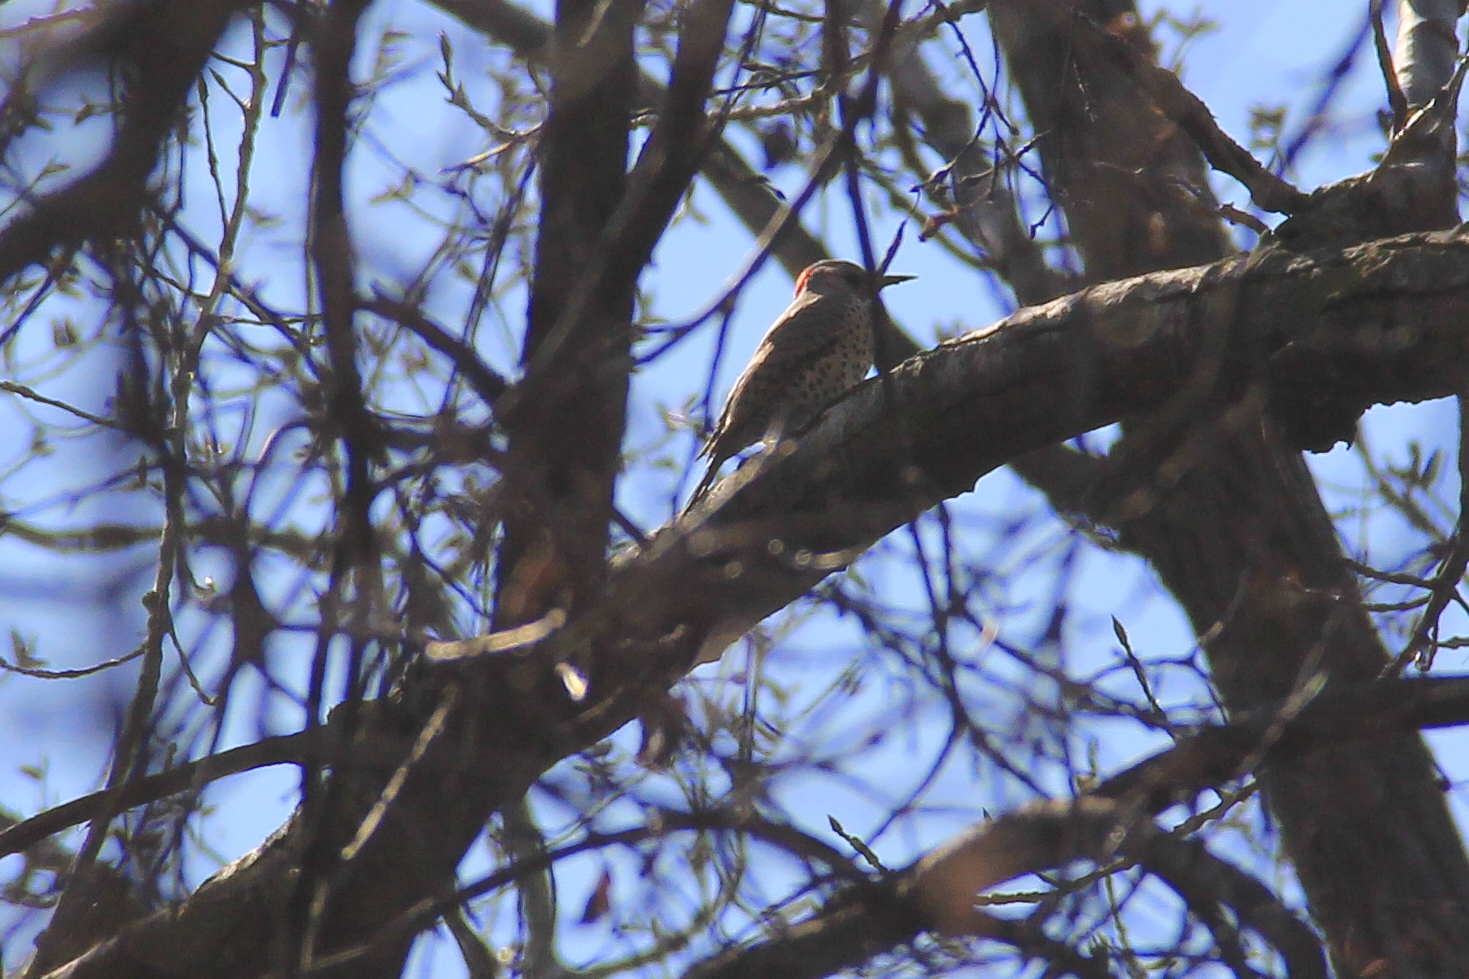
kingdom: Animalia
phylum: Chordata
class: Aves
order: Piciformes
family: Picidae
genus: Colaptes
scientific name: Colaptes auratus
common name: Northern flicker
